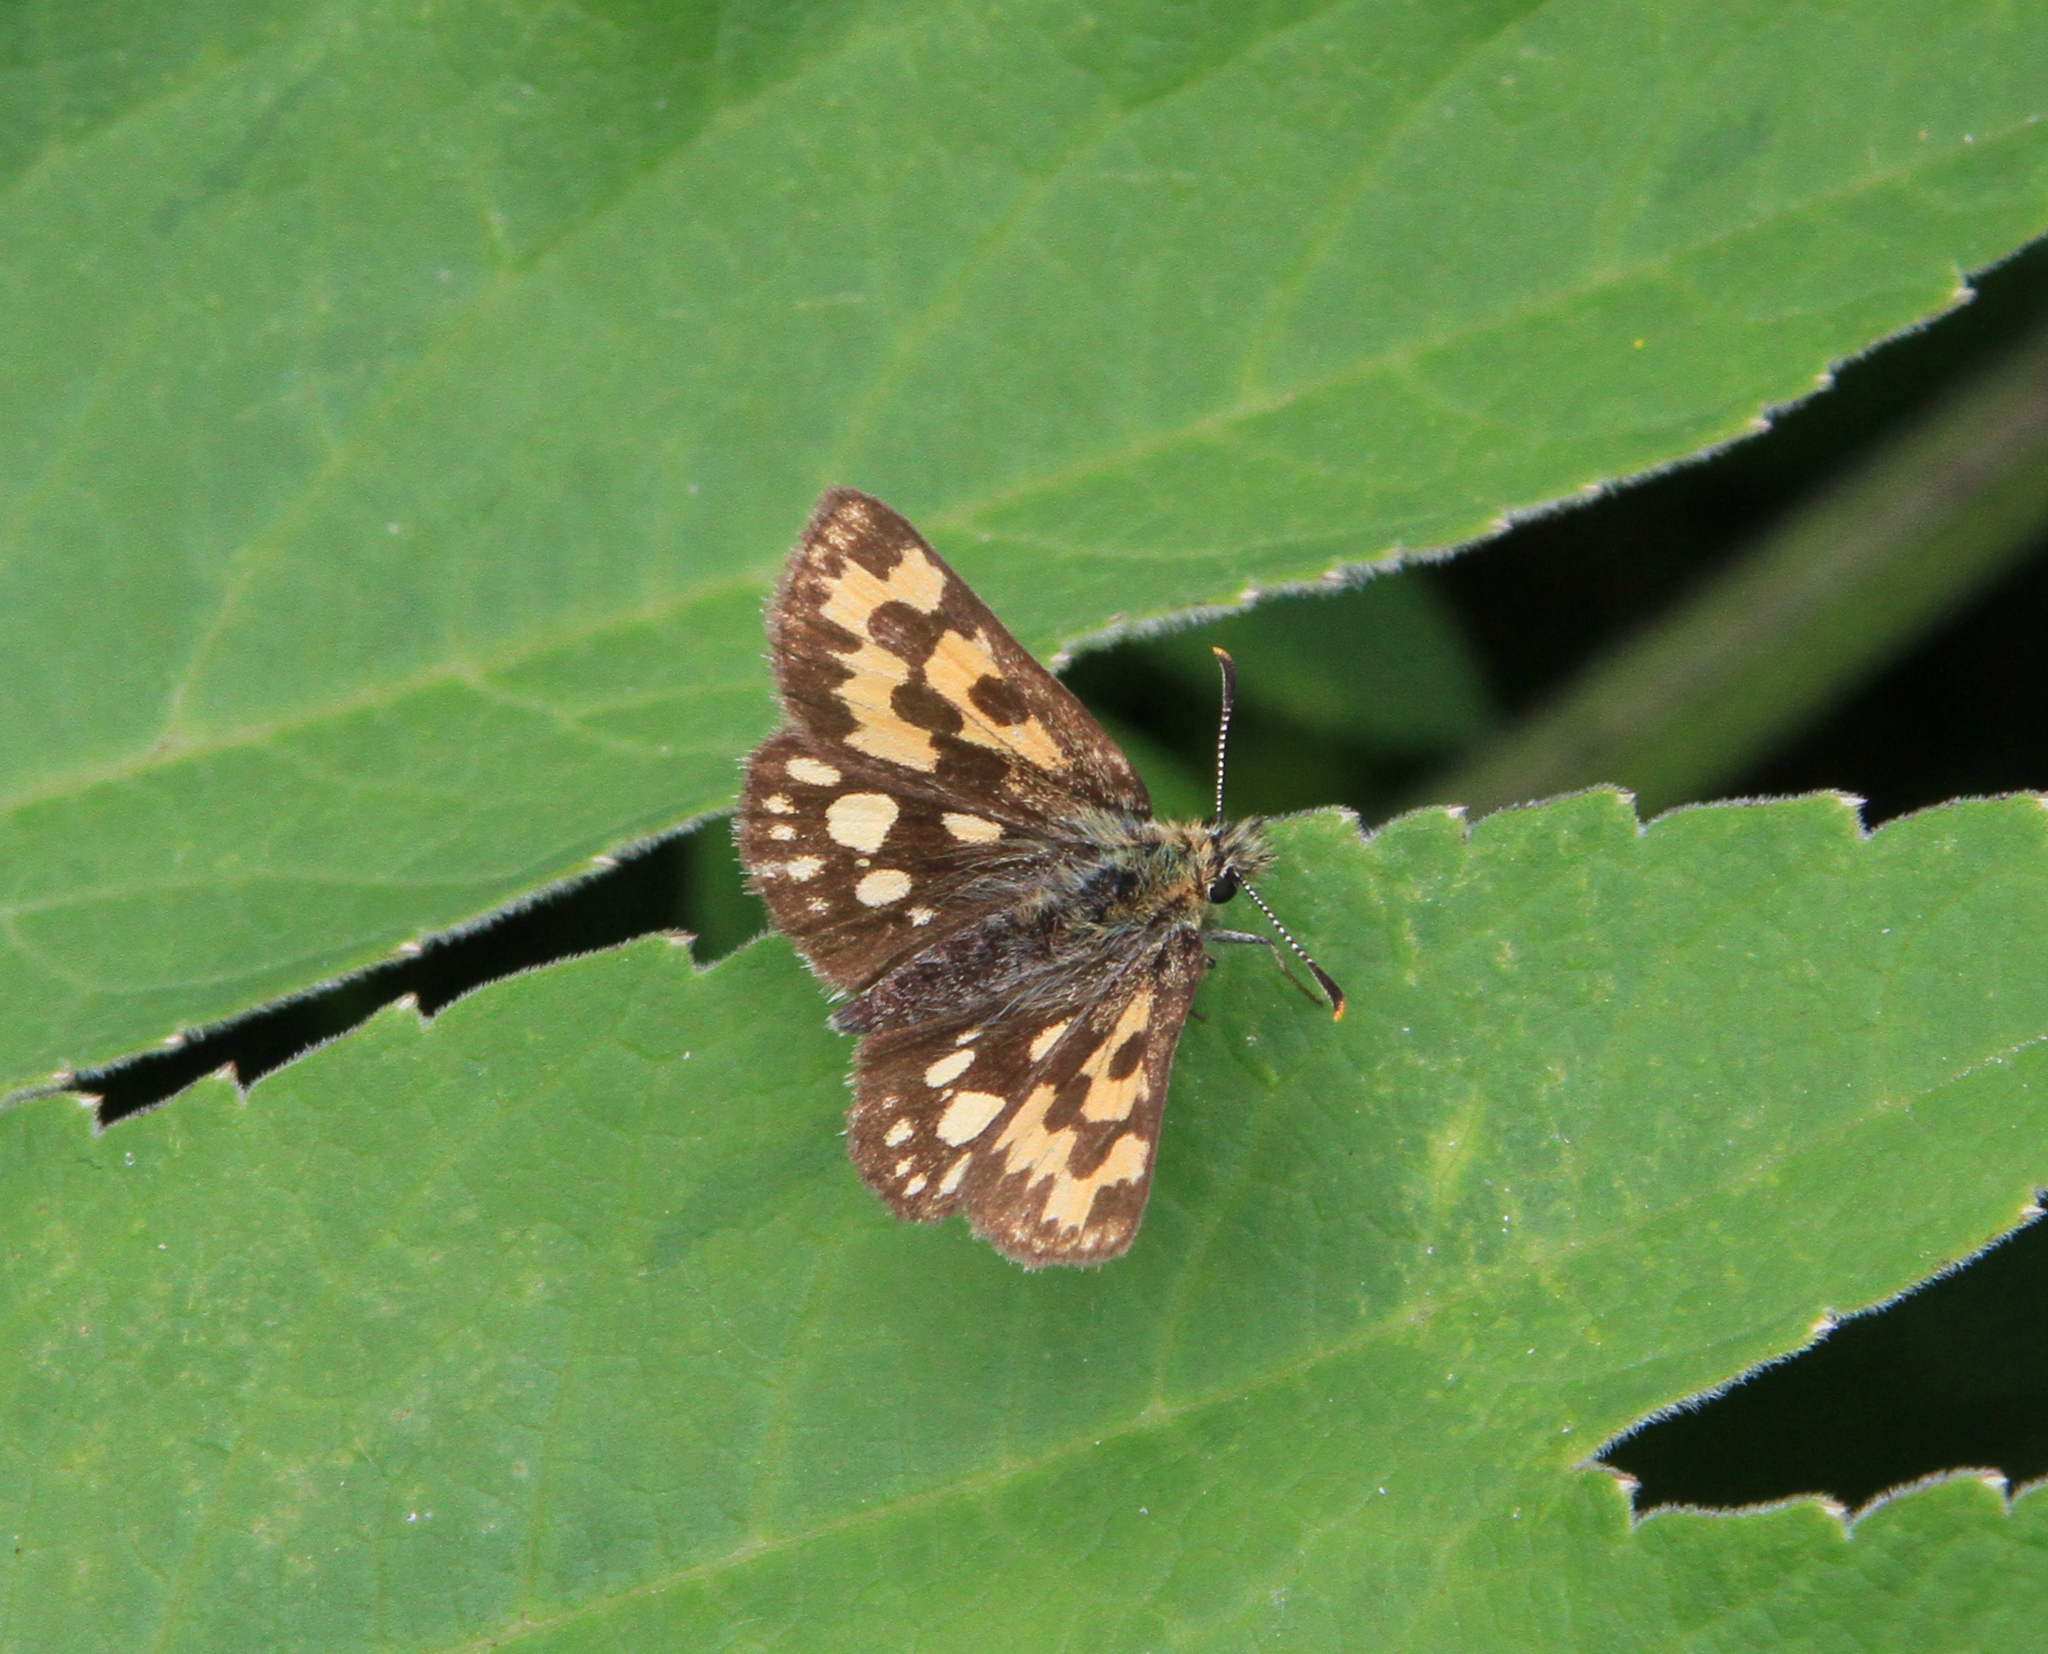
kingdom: Animalia
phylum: Arthropoda
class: Insecta
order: Lepidoptera
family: Hesperiidae
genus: Carterocephalus
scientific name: Carterocephalus silvicola
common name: Northern chequered skipper
